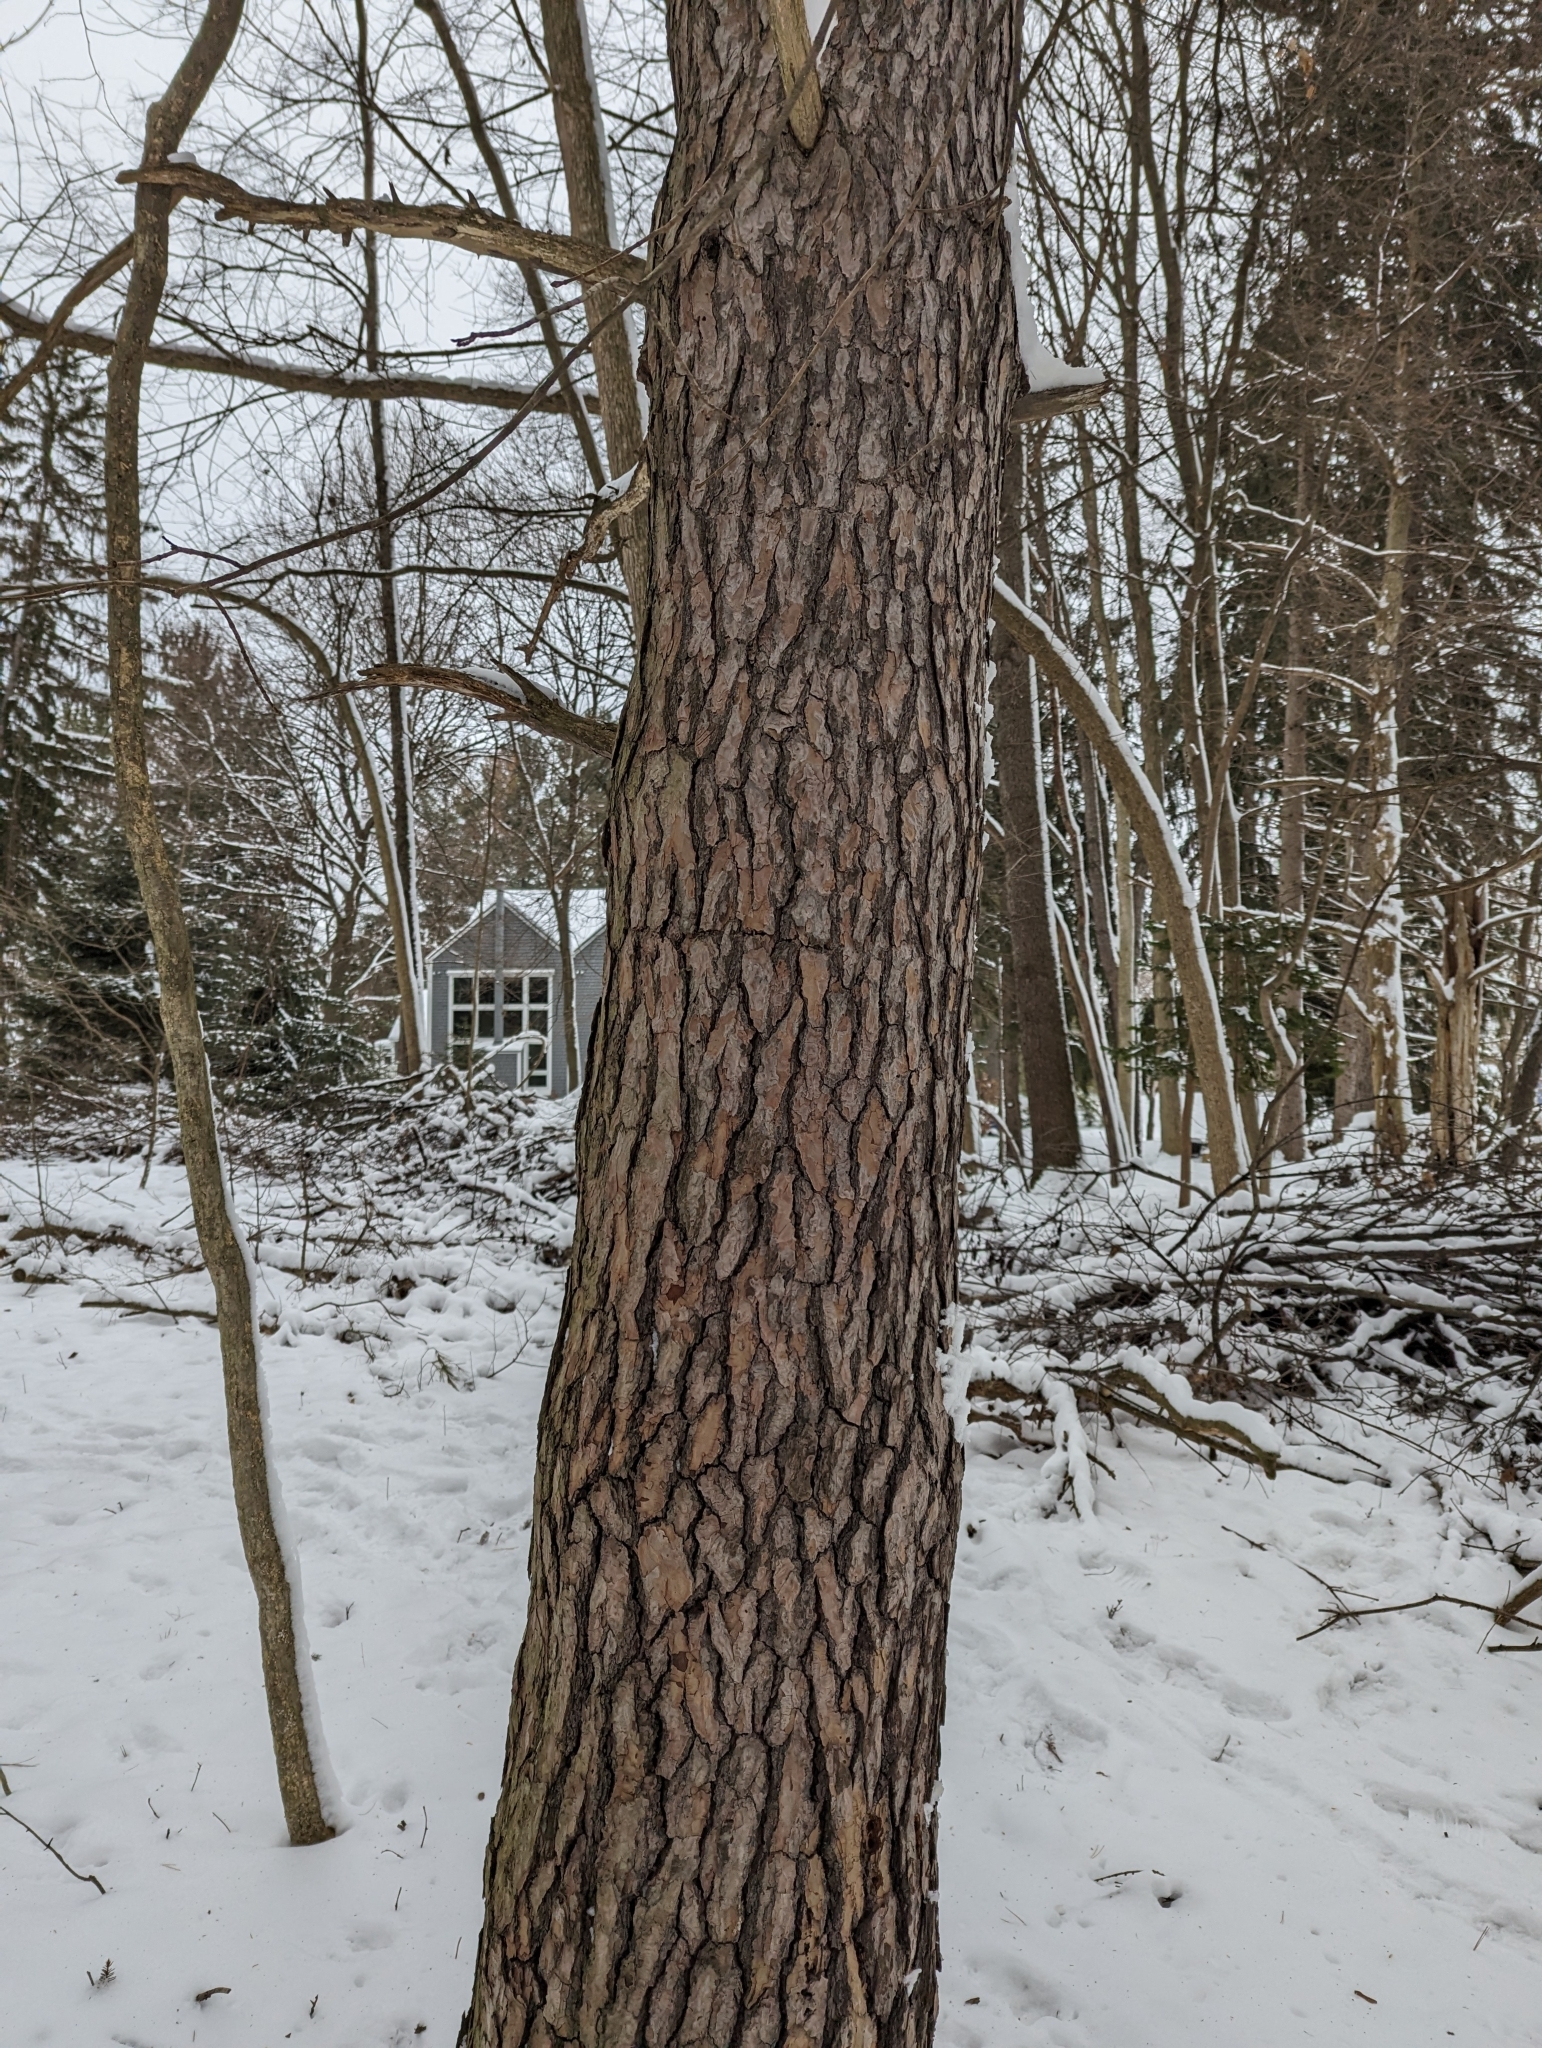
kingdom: Plantae
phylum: Tracheophyta
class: Pinopsida
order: Pinales
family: Pinaceae
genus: Pinus
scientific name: Pinus sylvestris
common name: Scots pine
